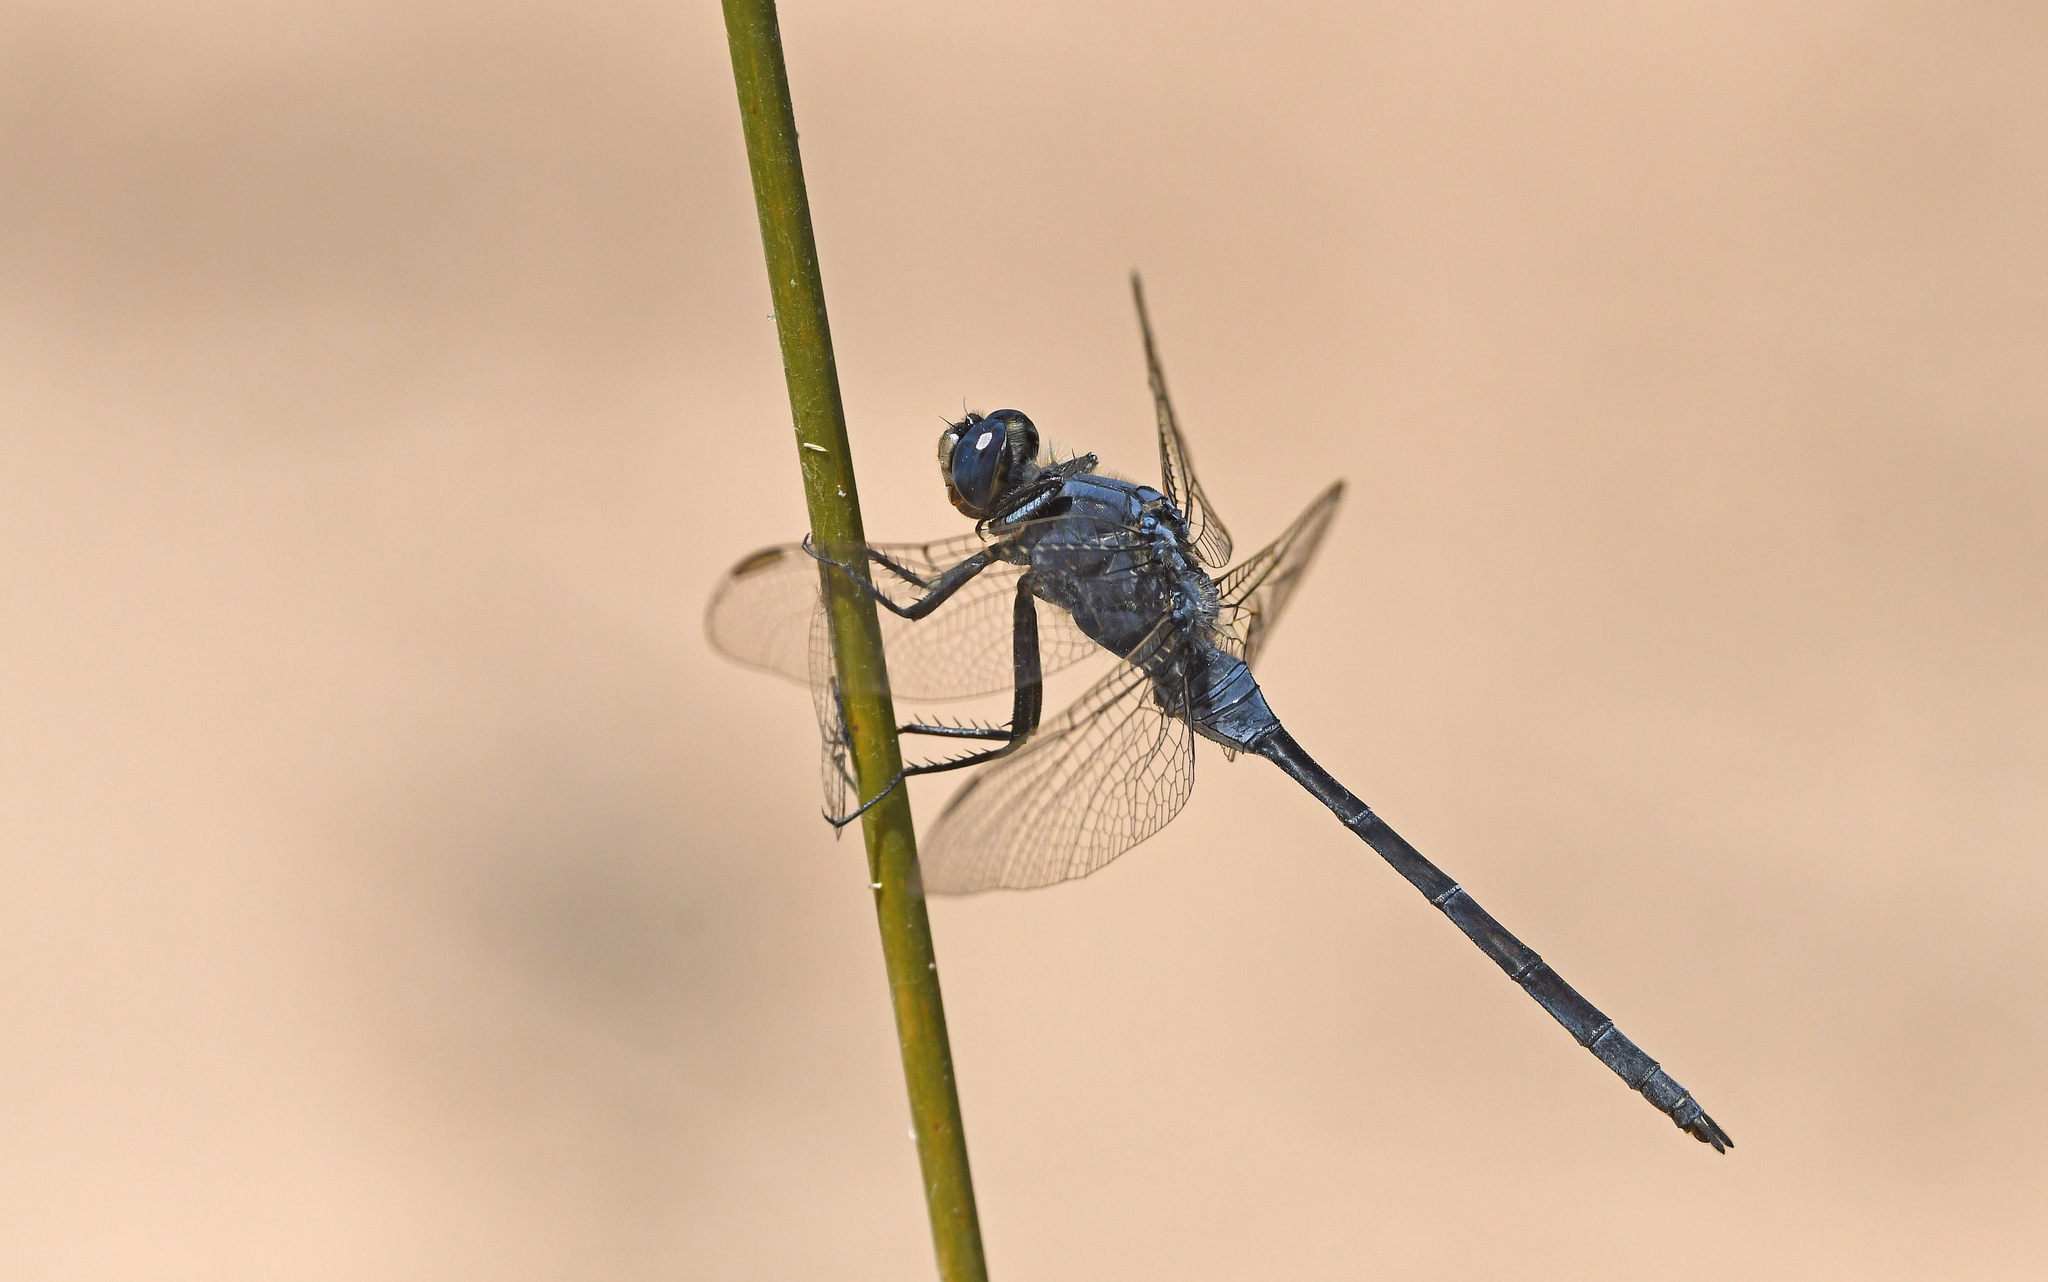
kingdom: Animalia
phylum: Arthropoda
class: Insecta
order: Odonata
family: Libellulidae
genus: Orthetrum
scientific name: Orthetrum trinacria
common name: Long skimmer
